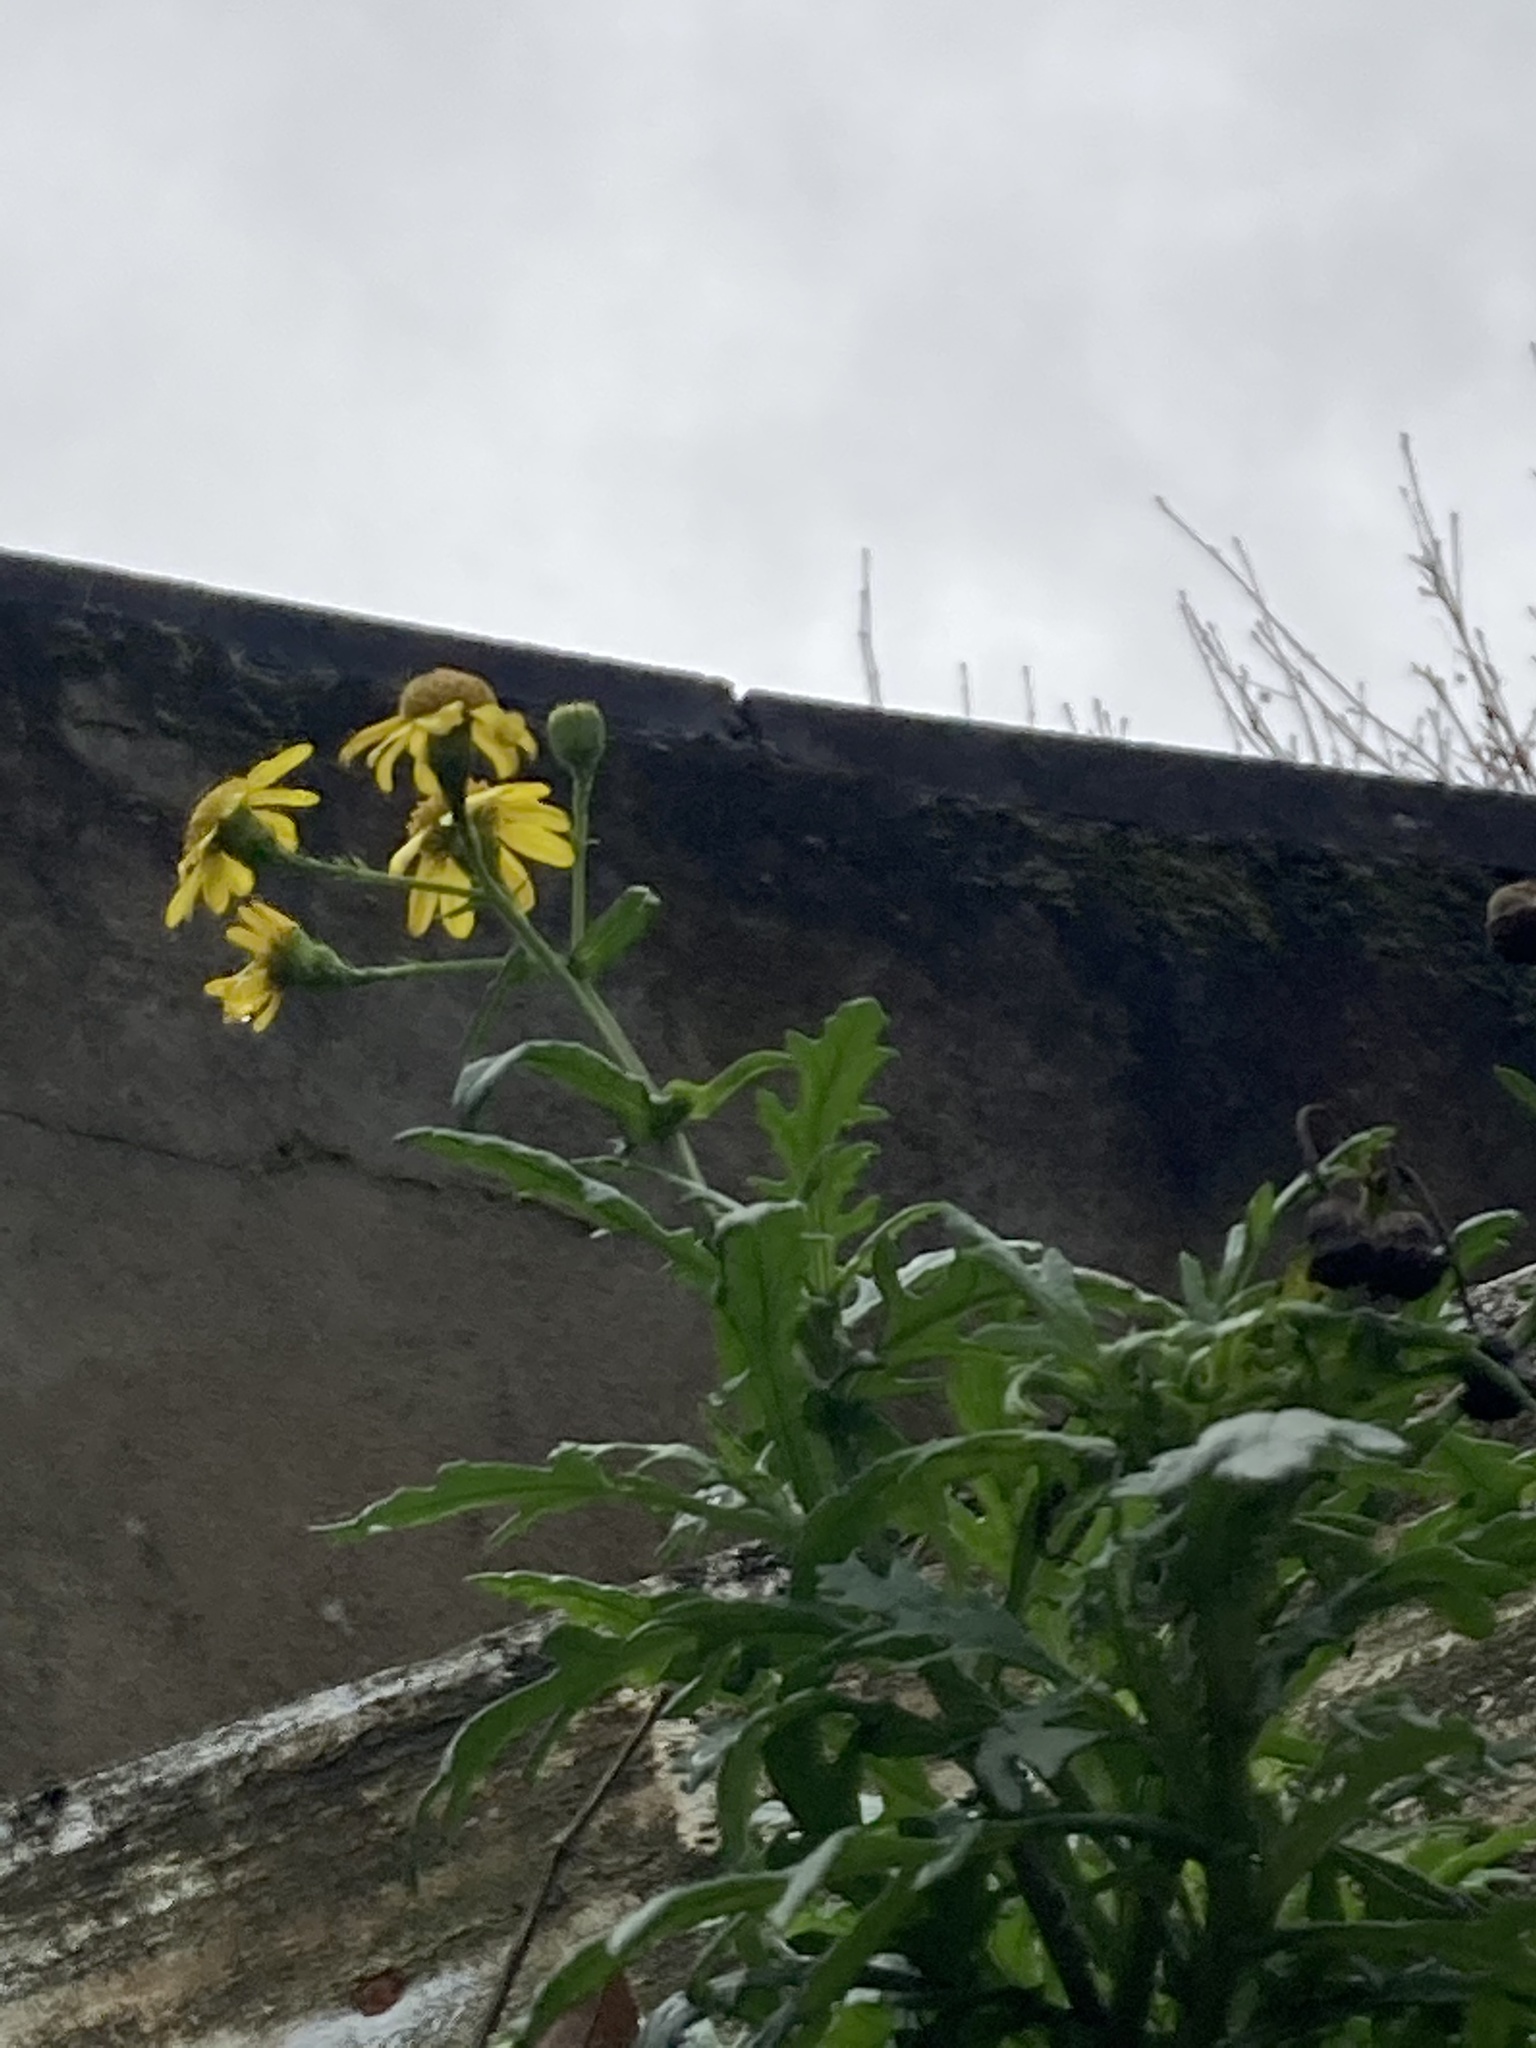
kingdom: Plantae
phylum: Tracheophyta
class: Magnoliopsida
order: Asterales
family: Asteraceae
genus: Senecio
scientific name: Senecio squalidus
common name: Oxford ragwort
